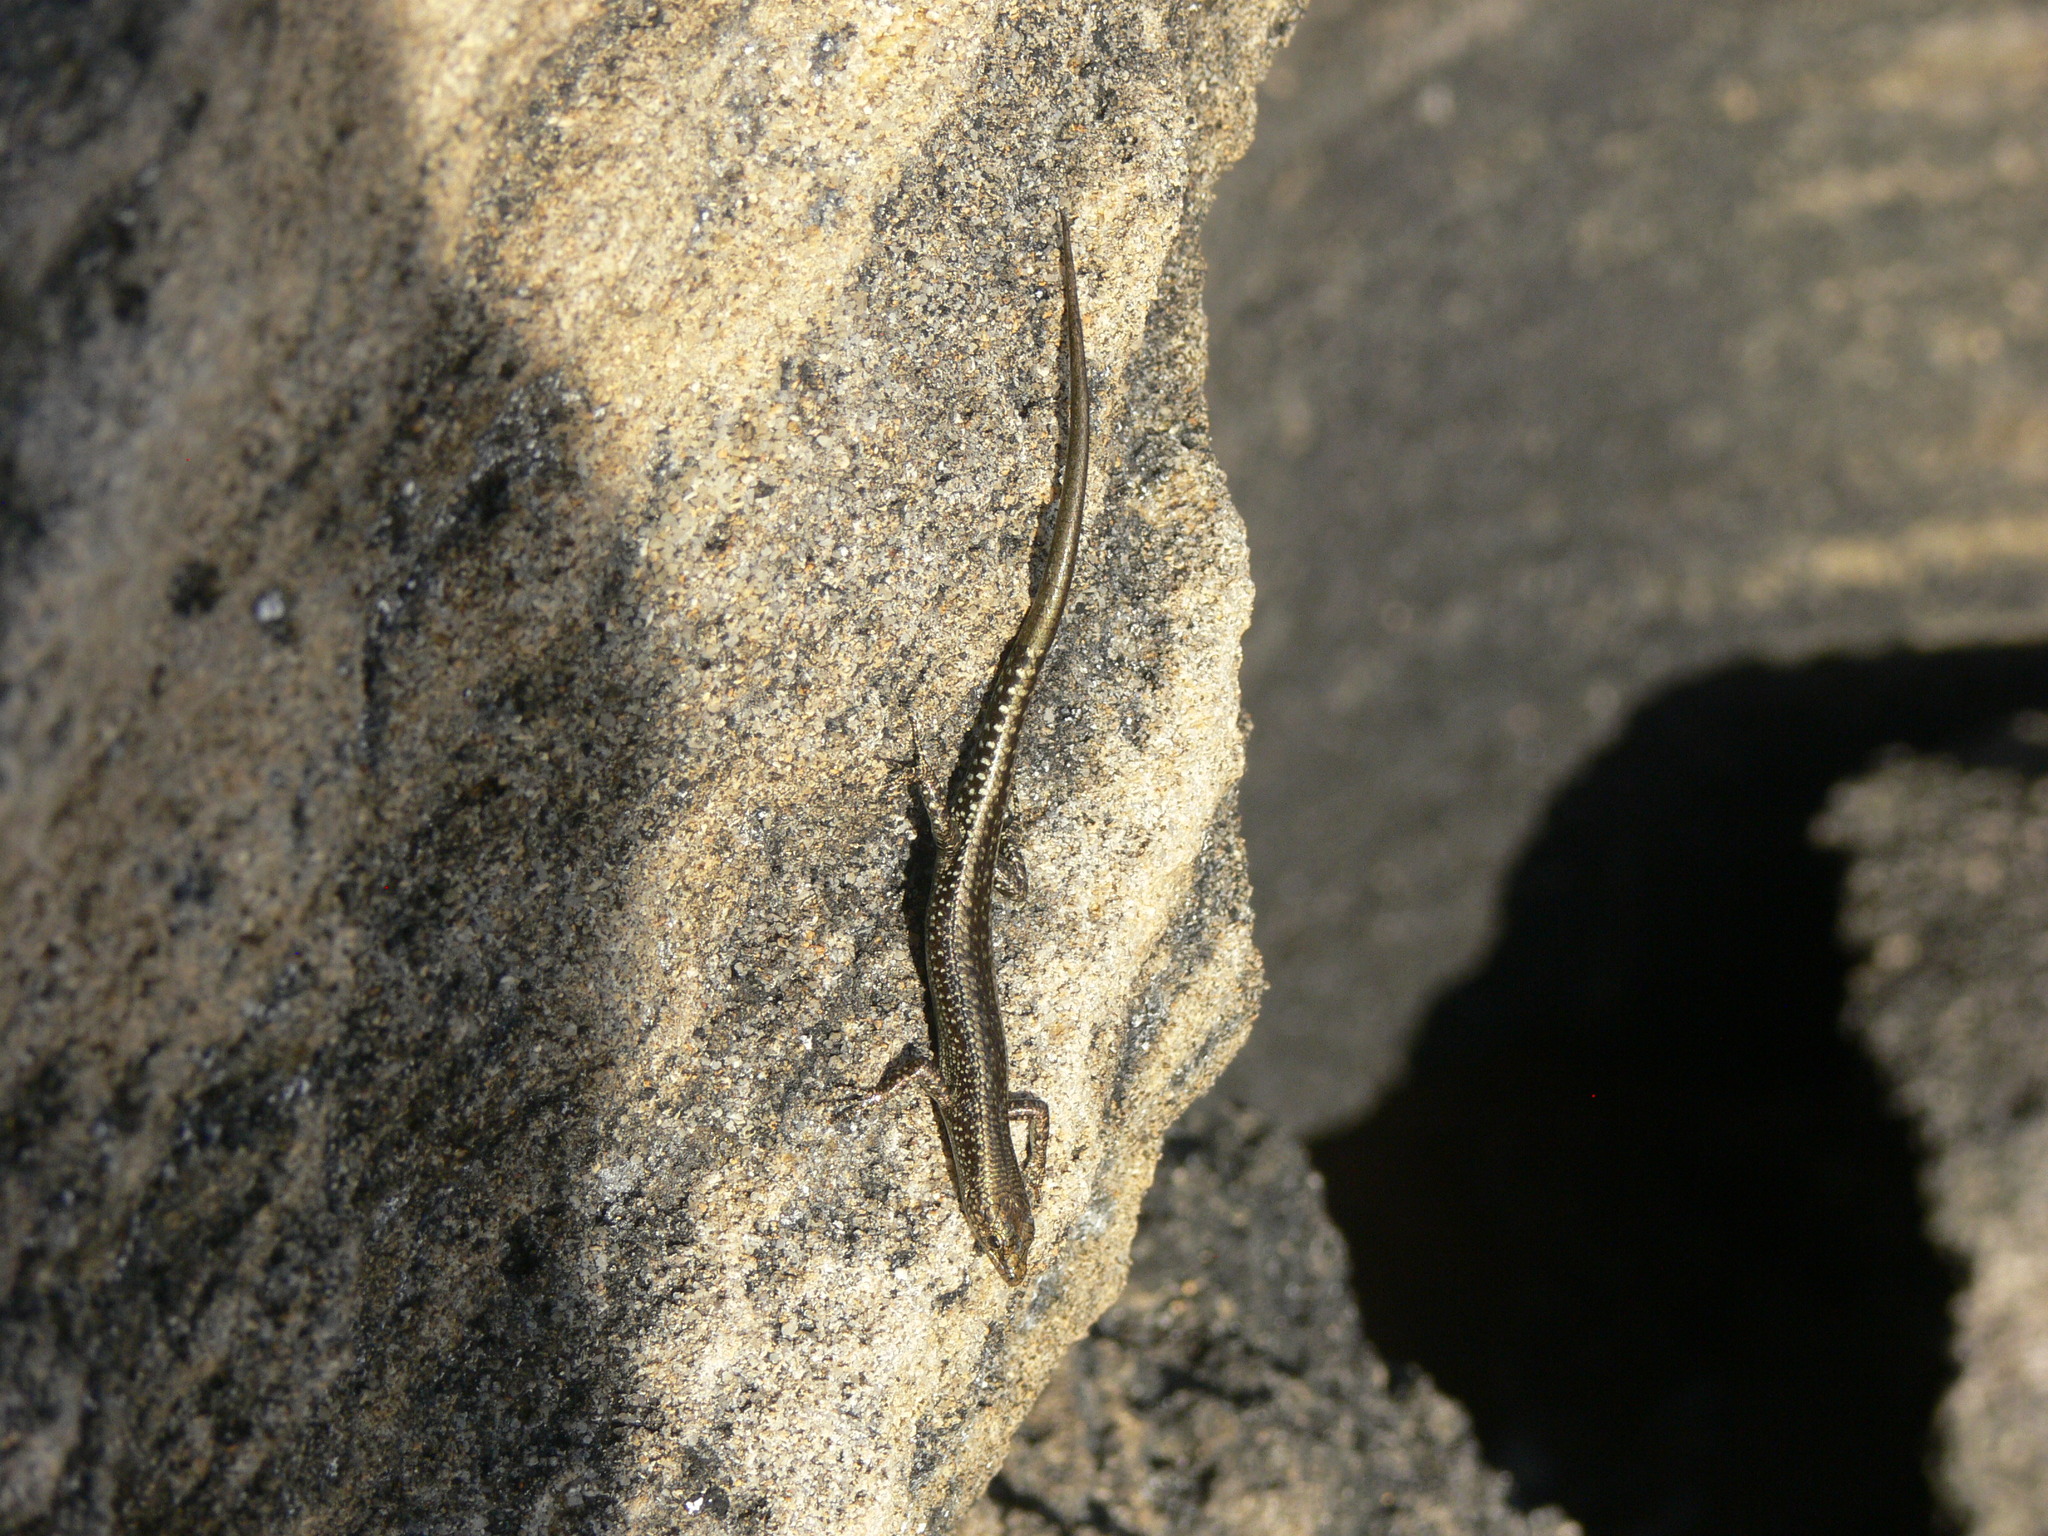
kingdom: Animalia
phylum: Chordata
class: Squamata
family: Scincidae
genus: Cryptoblepharus
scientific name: Cryptoblepharus voeltzkowi
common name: Voeltzkow’s snake-eyed skink
